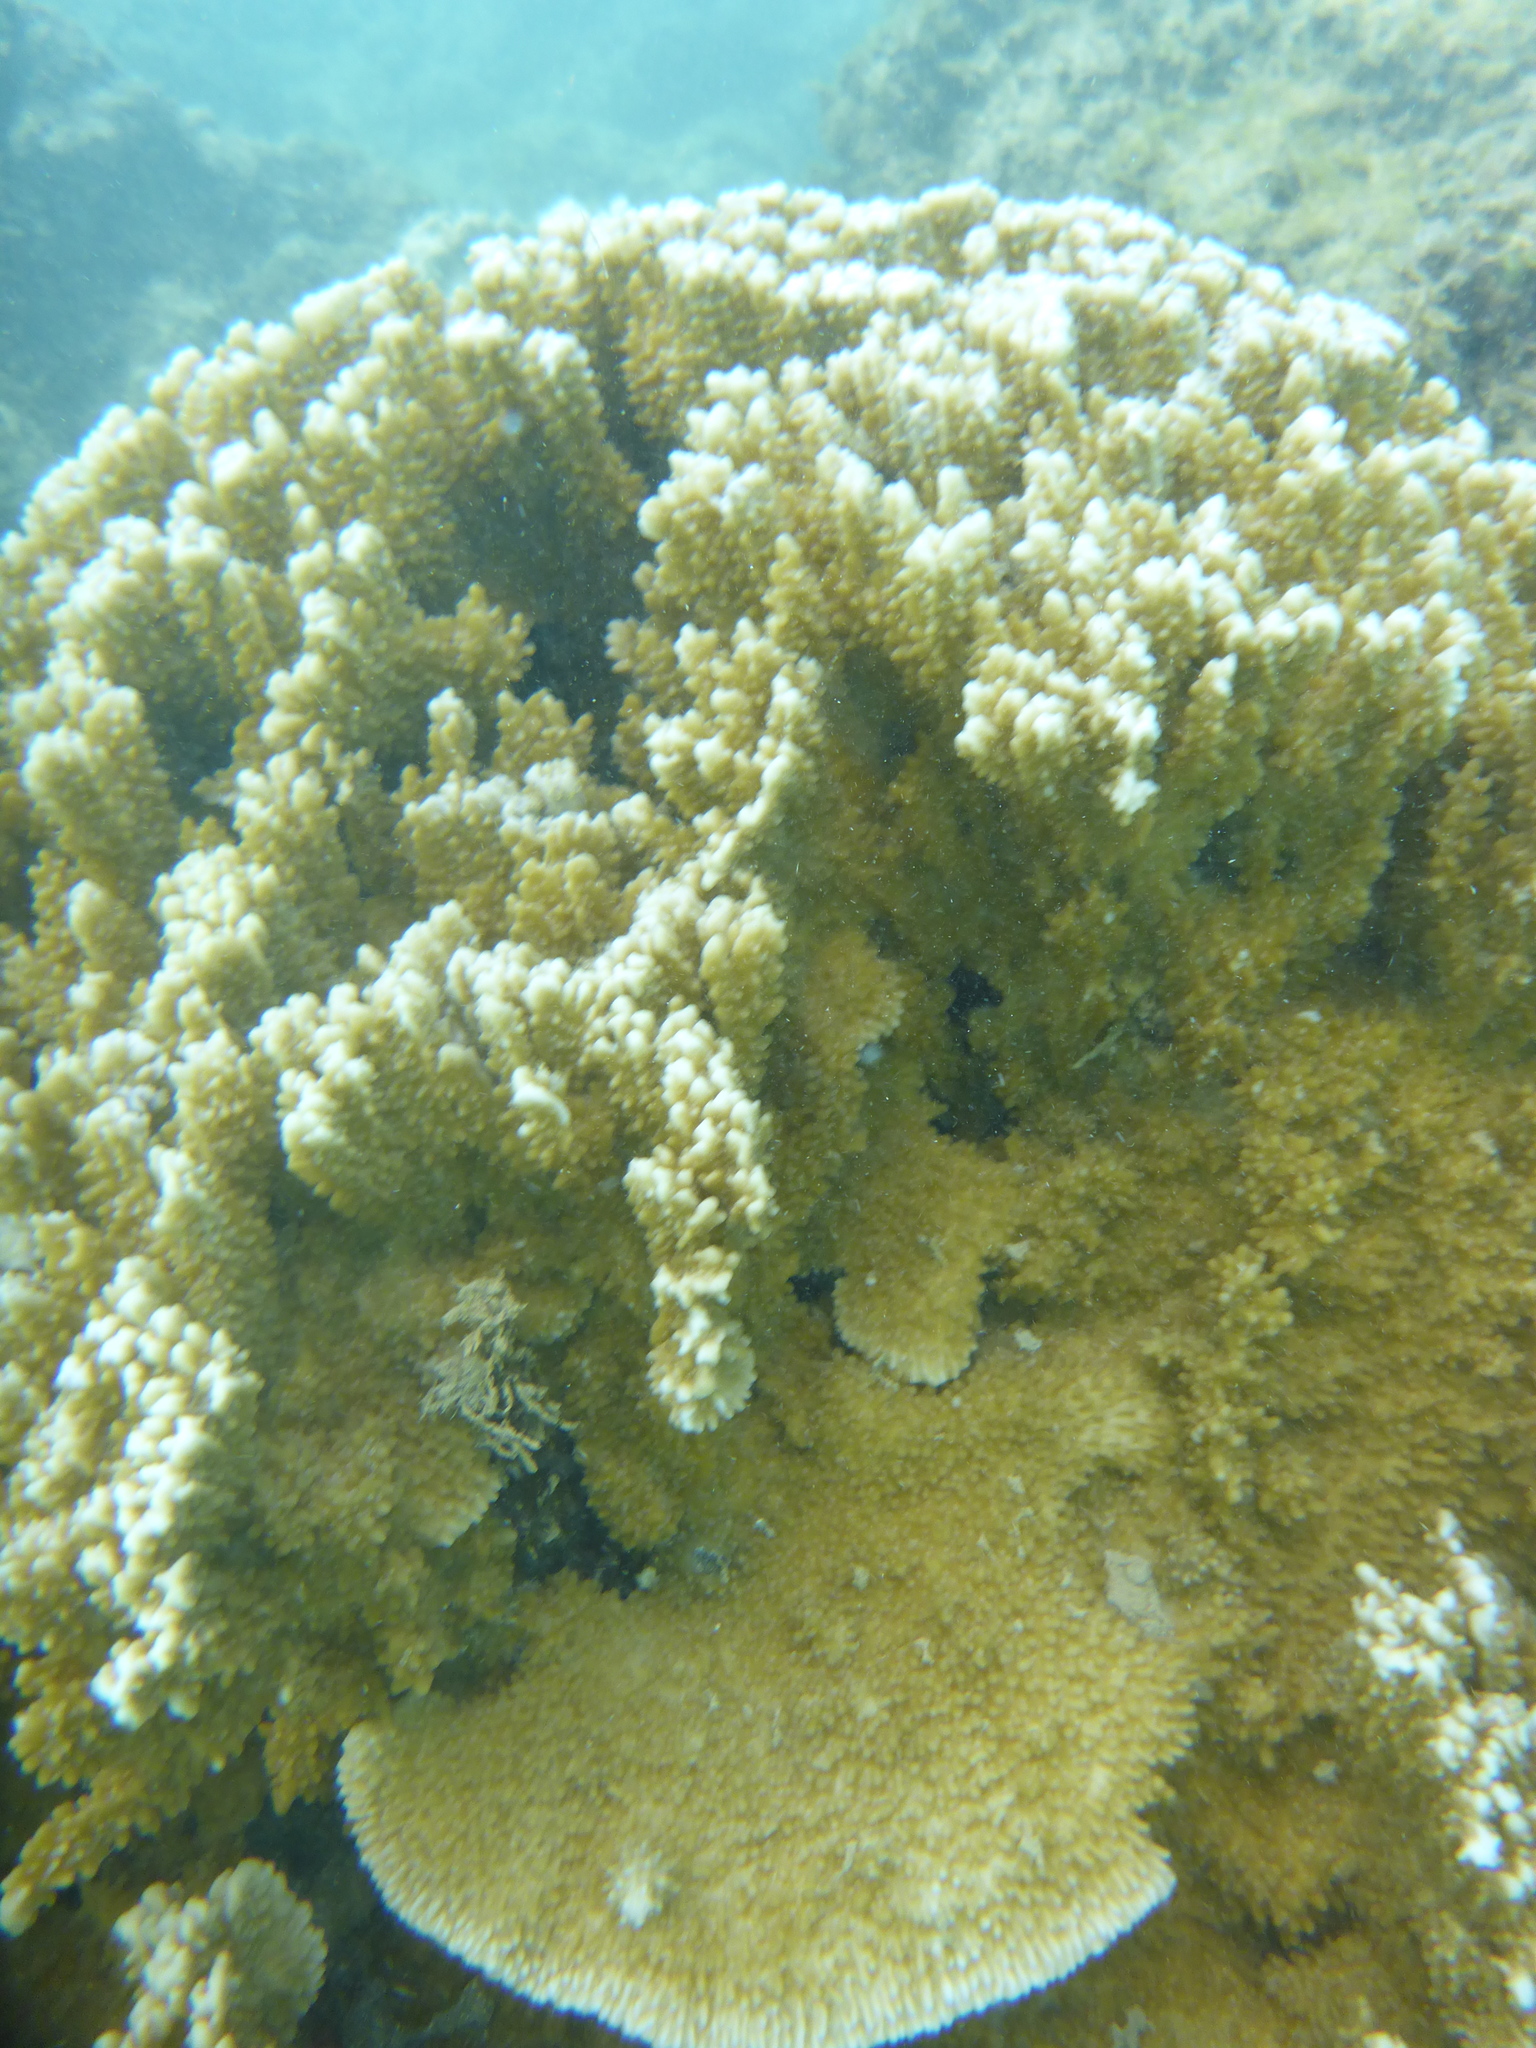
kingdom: Animalia
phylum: Cnidaria
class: Anthozoa
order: Scleractinia
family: Acroporidae
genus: Montipora
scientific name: Montipora capitata
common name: Pore coral
